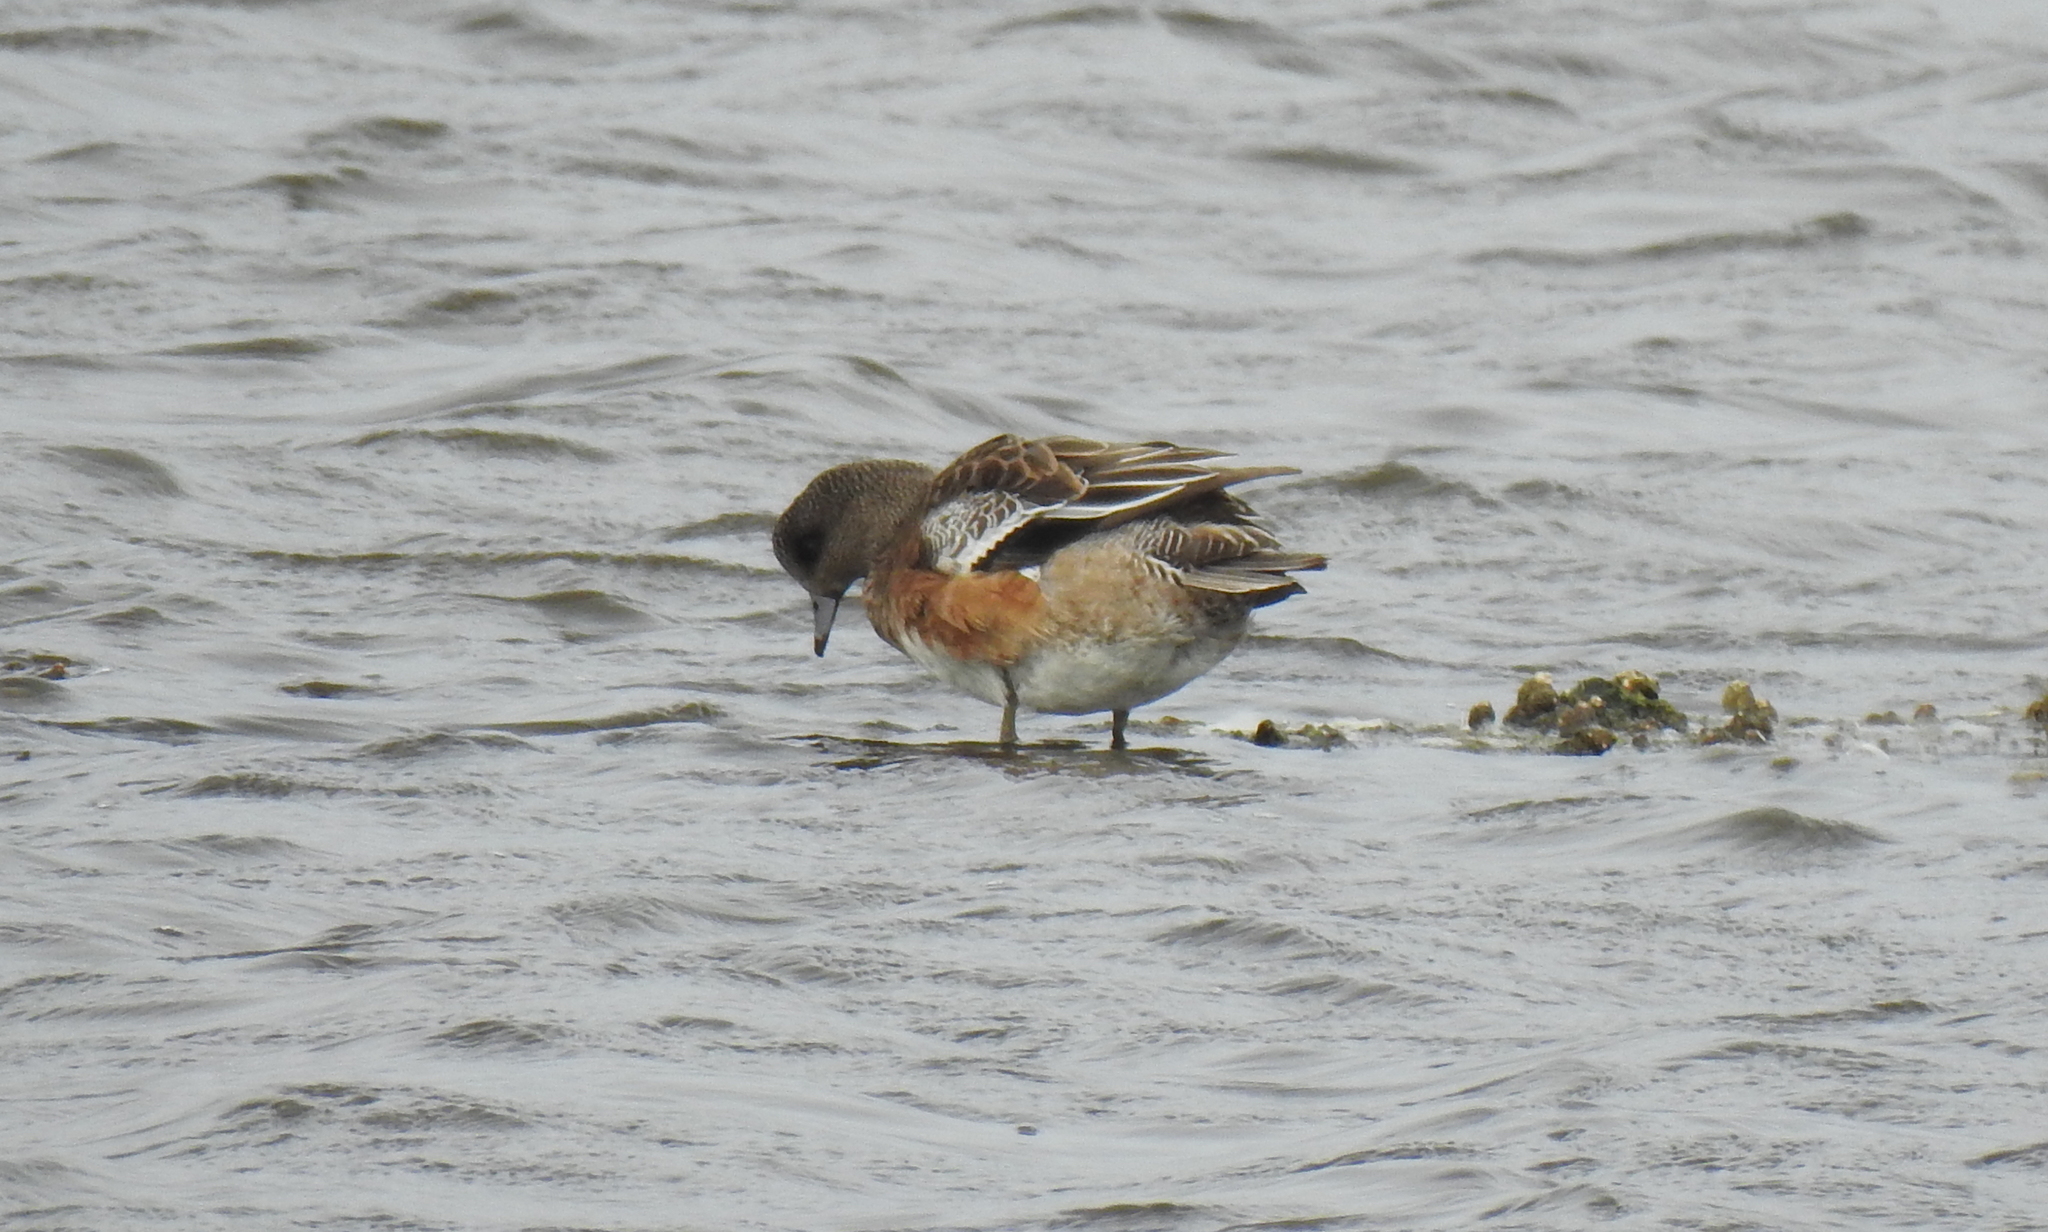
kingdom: Animalia
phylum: Chordata
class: Aves
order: Anseriformes
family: Anatidae
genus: Mareca
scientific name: Mareca americana
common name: American wigeon
